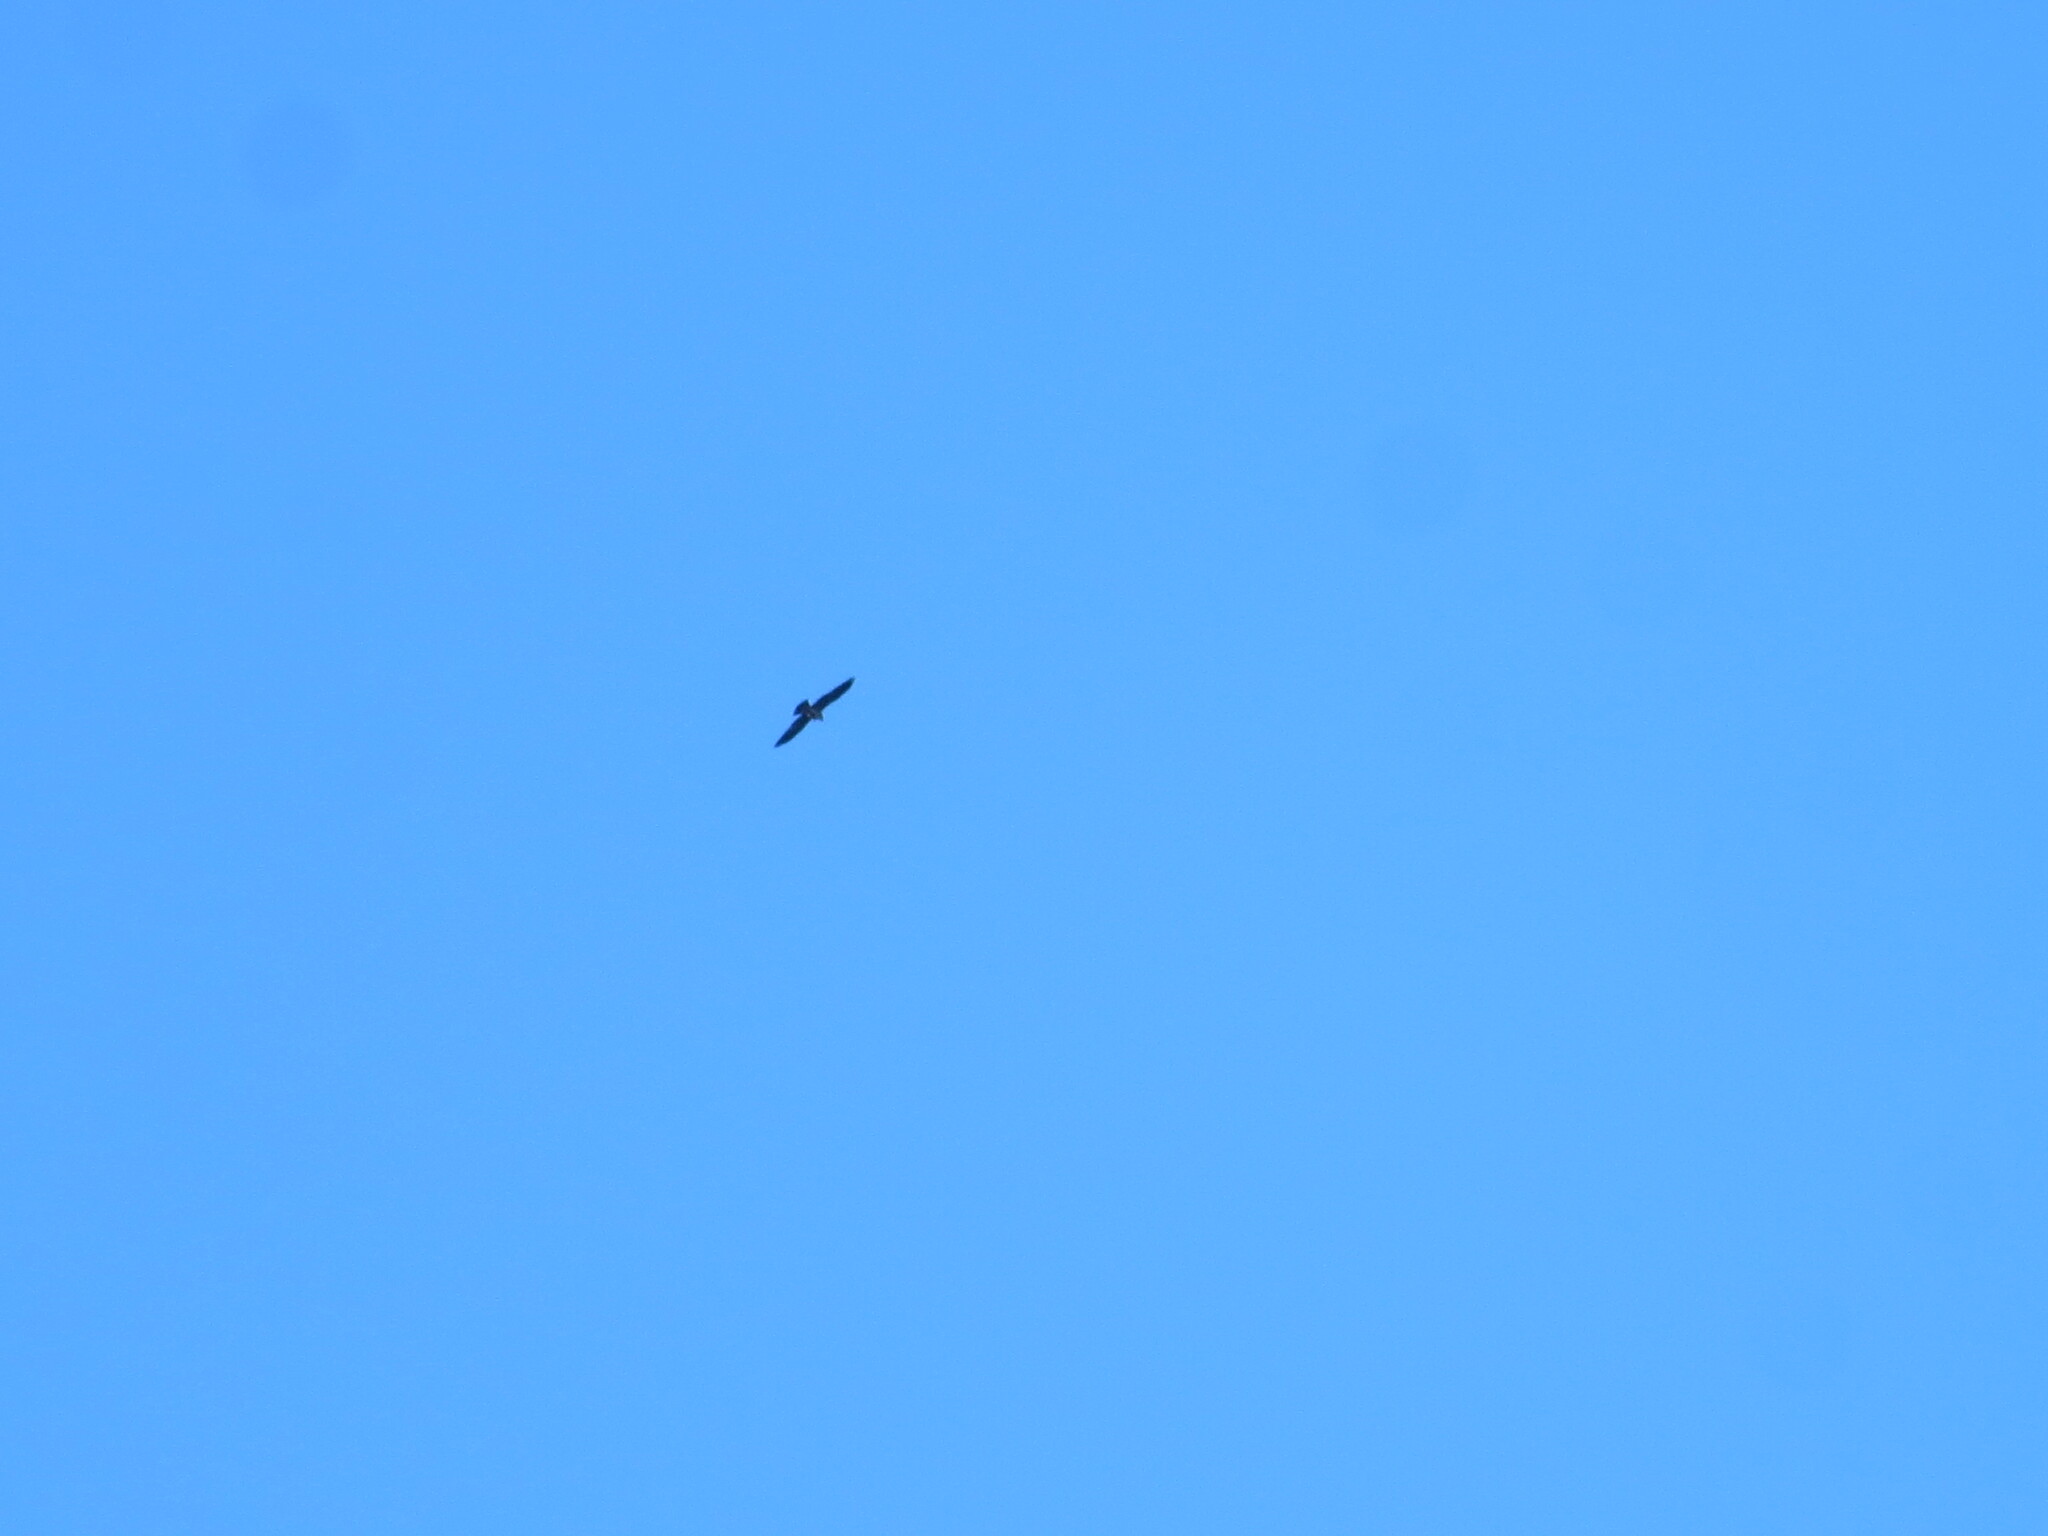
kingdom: Animalia
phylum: Chordata
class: Aves
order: Accipitriformes
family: Accipitridae
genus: Ictinia
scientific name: Ictinia mississippiensis
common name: Mississippi kite
